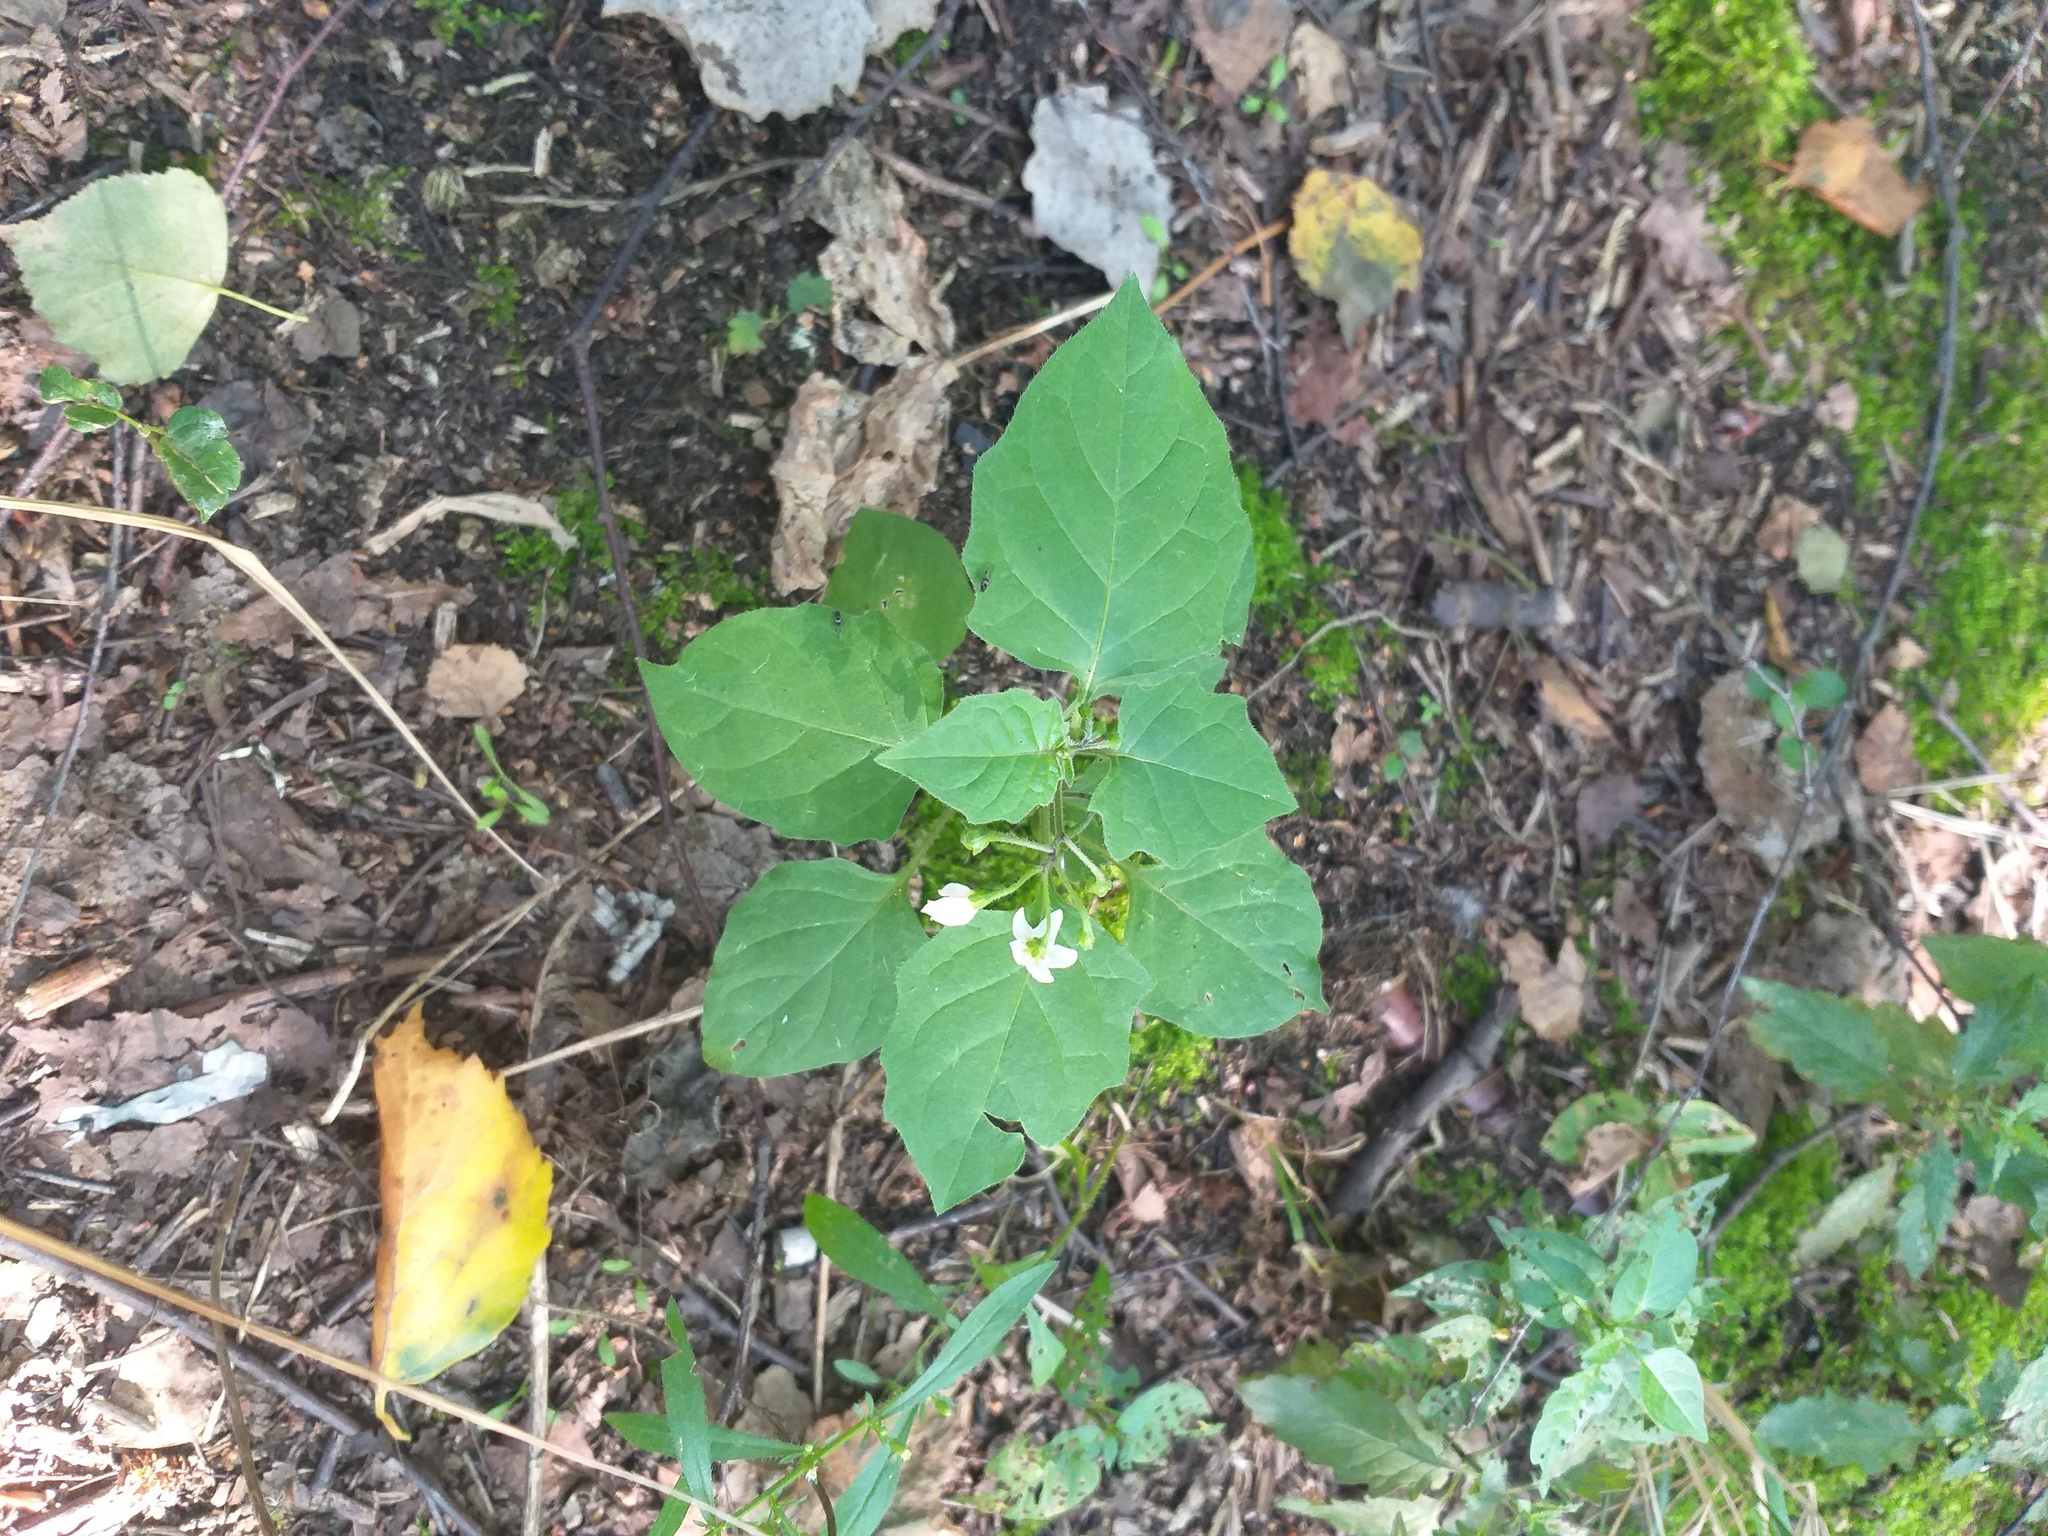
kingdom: Plantae
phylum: Tracheophyta
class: Magnoliopsida
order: Solanales
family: Solanaceae
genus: Solanum
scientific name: Solanum nigrum
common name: Black nightshade
